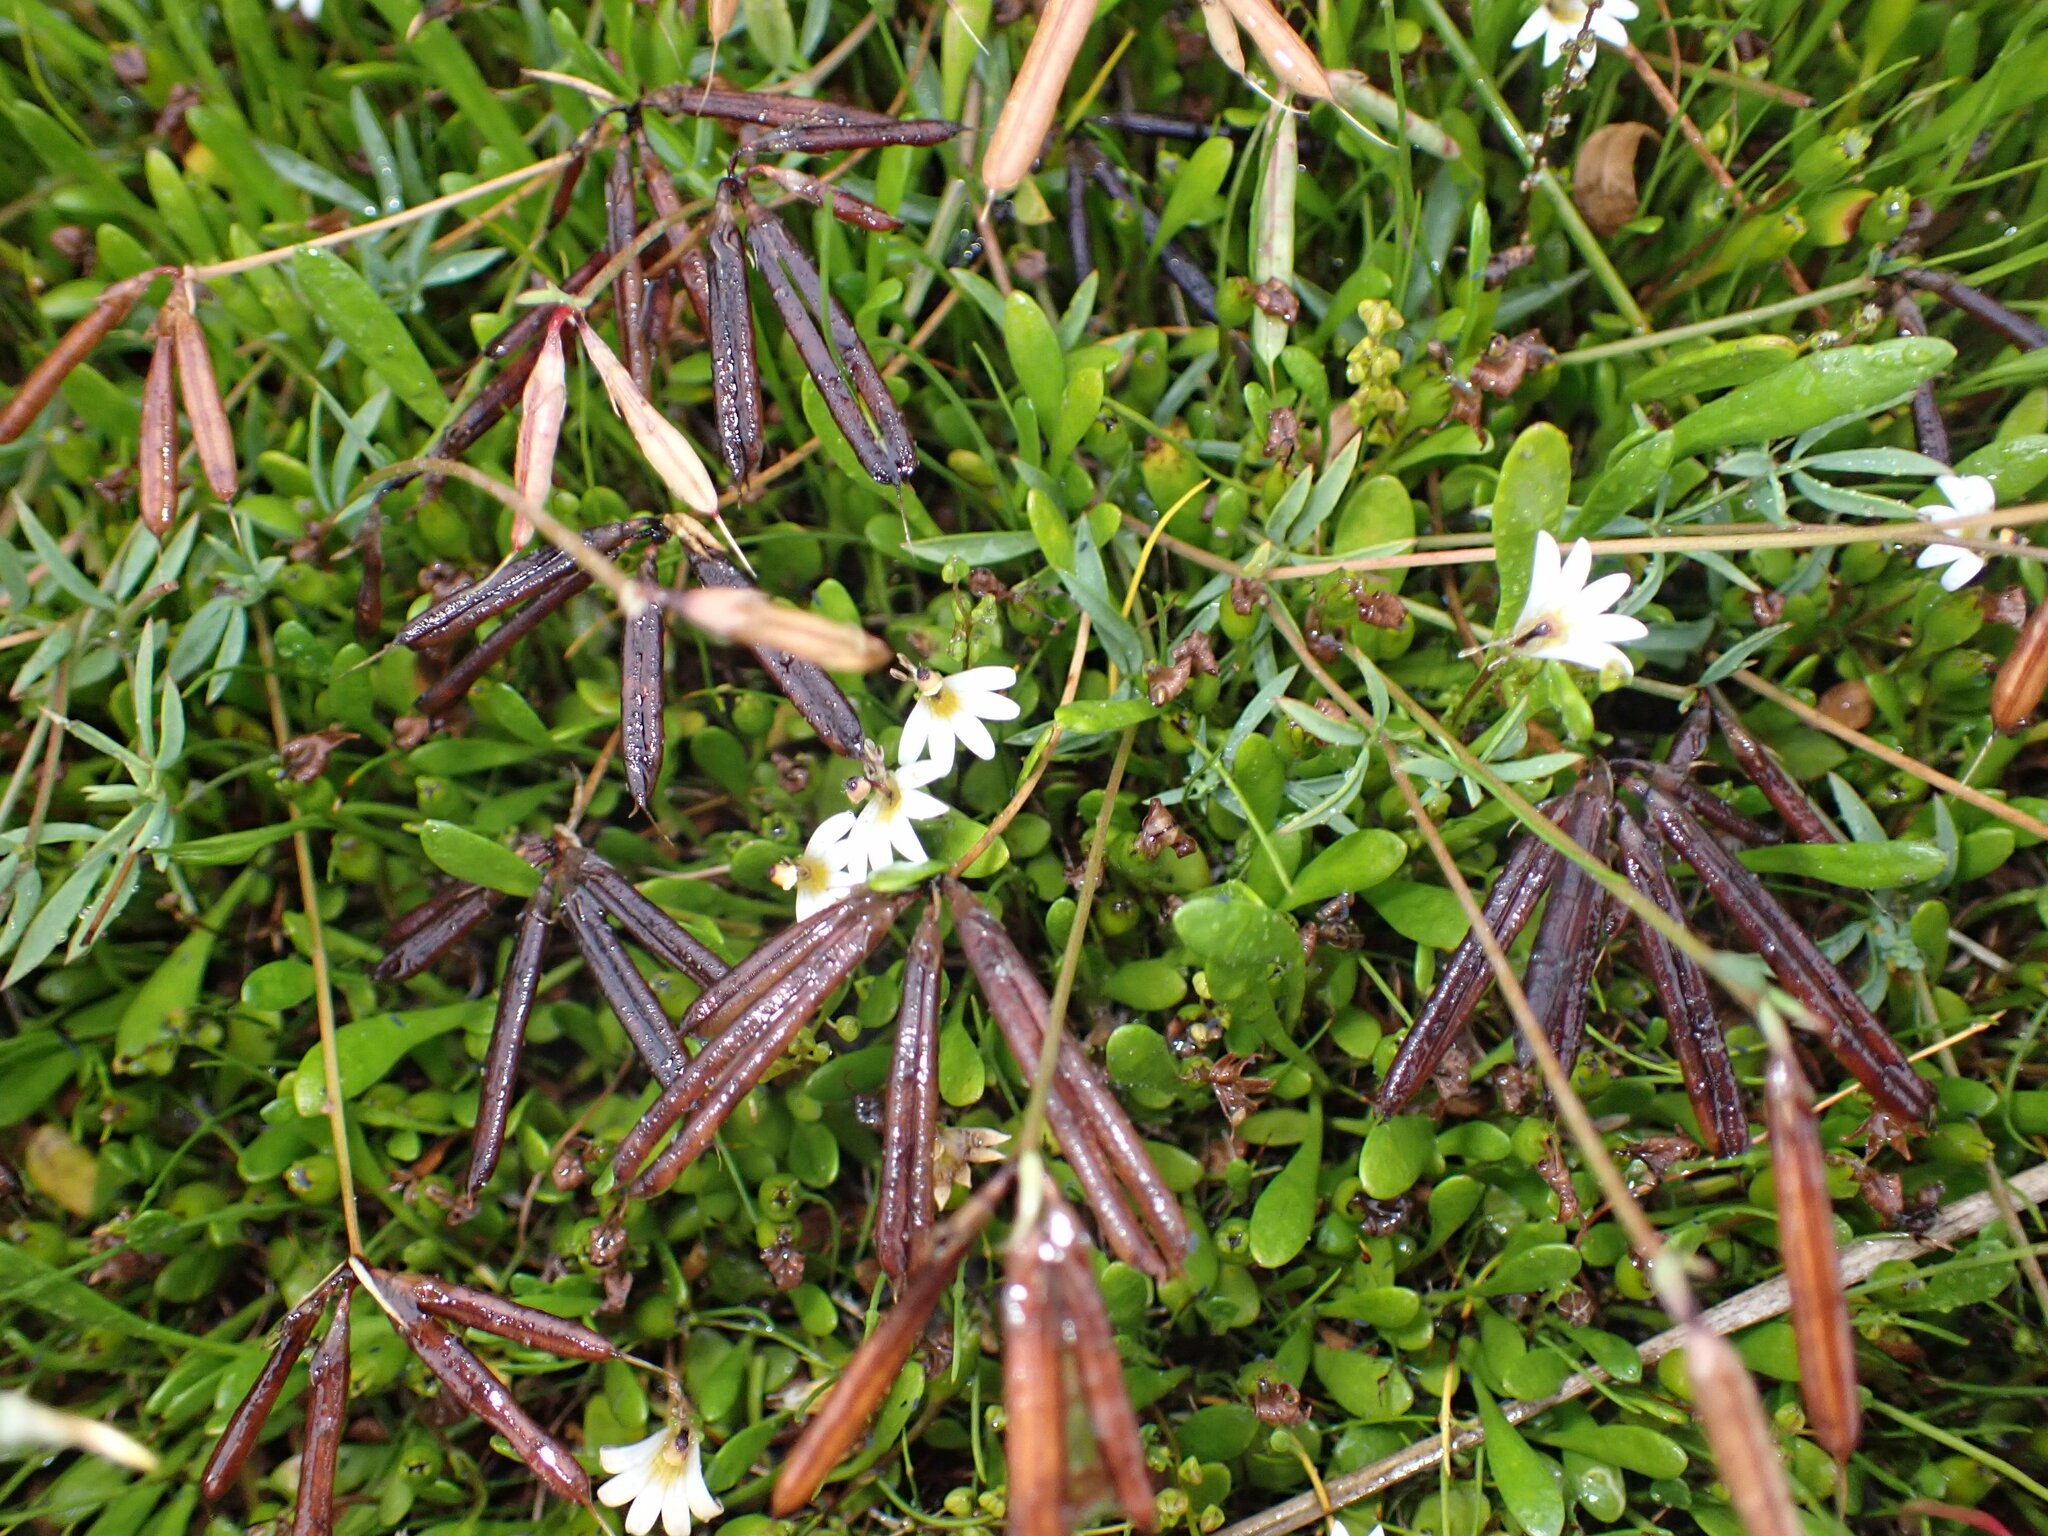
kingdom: Plantae
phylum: Tracheophyta
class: Magnoliopsida
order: Asterales
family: Goodeniaceae
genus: Goodenia
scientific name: Goodenia radicans
